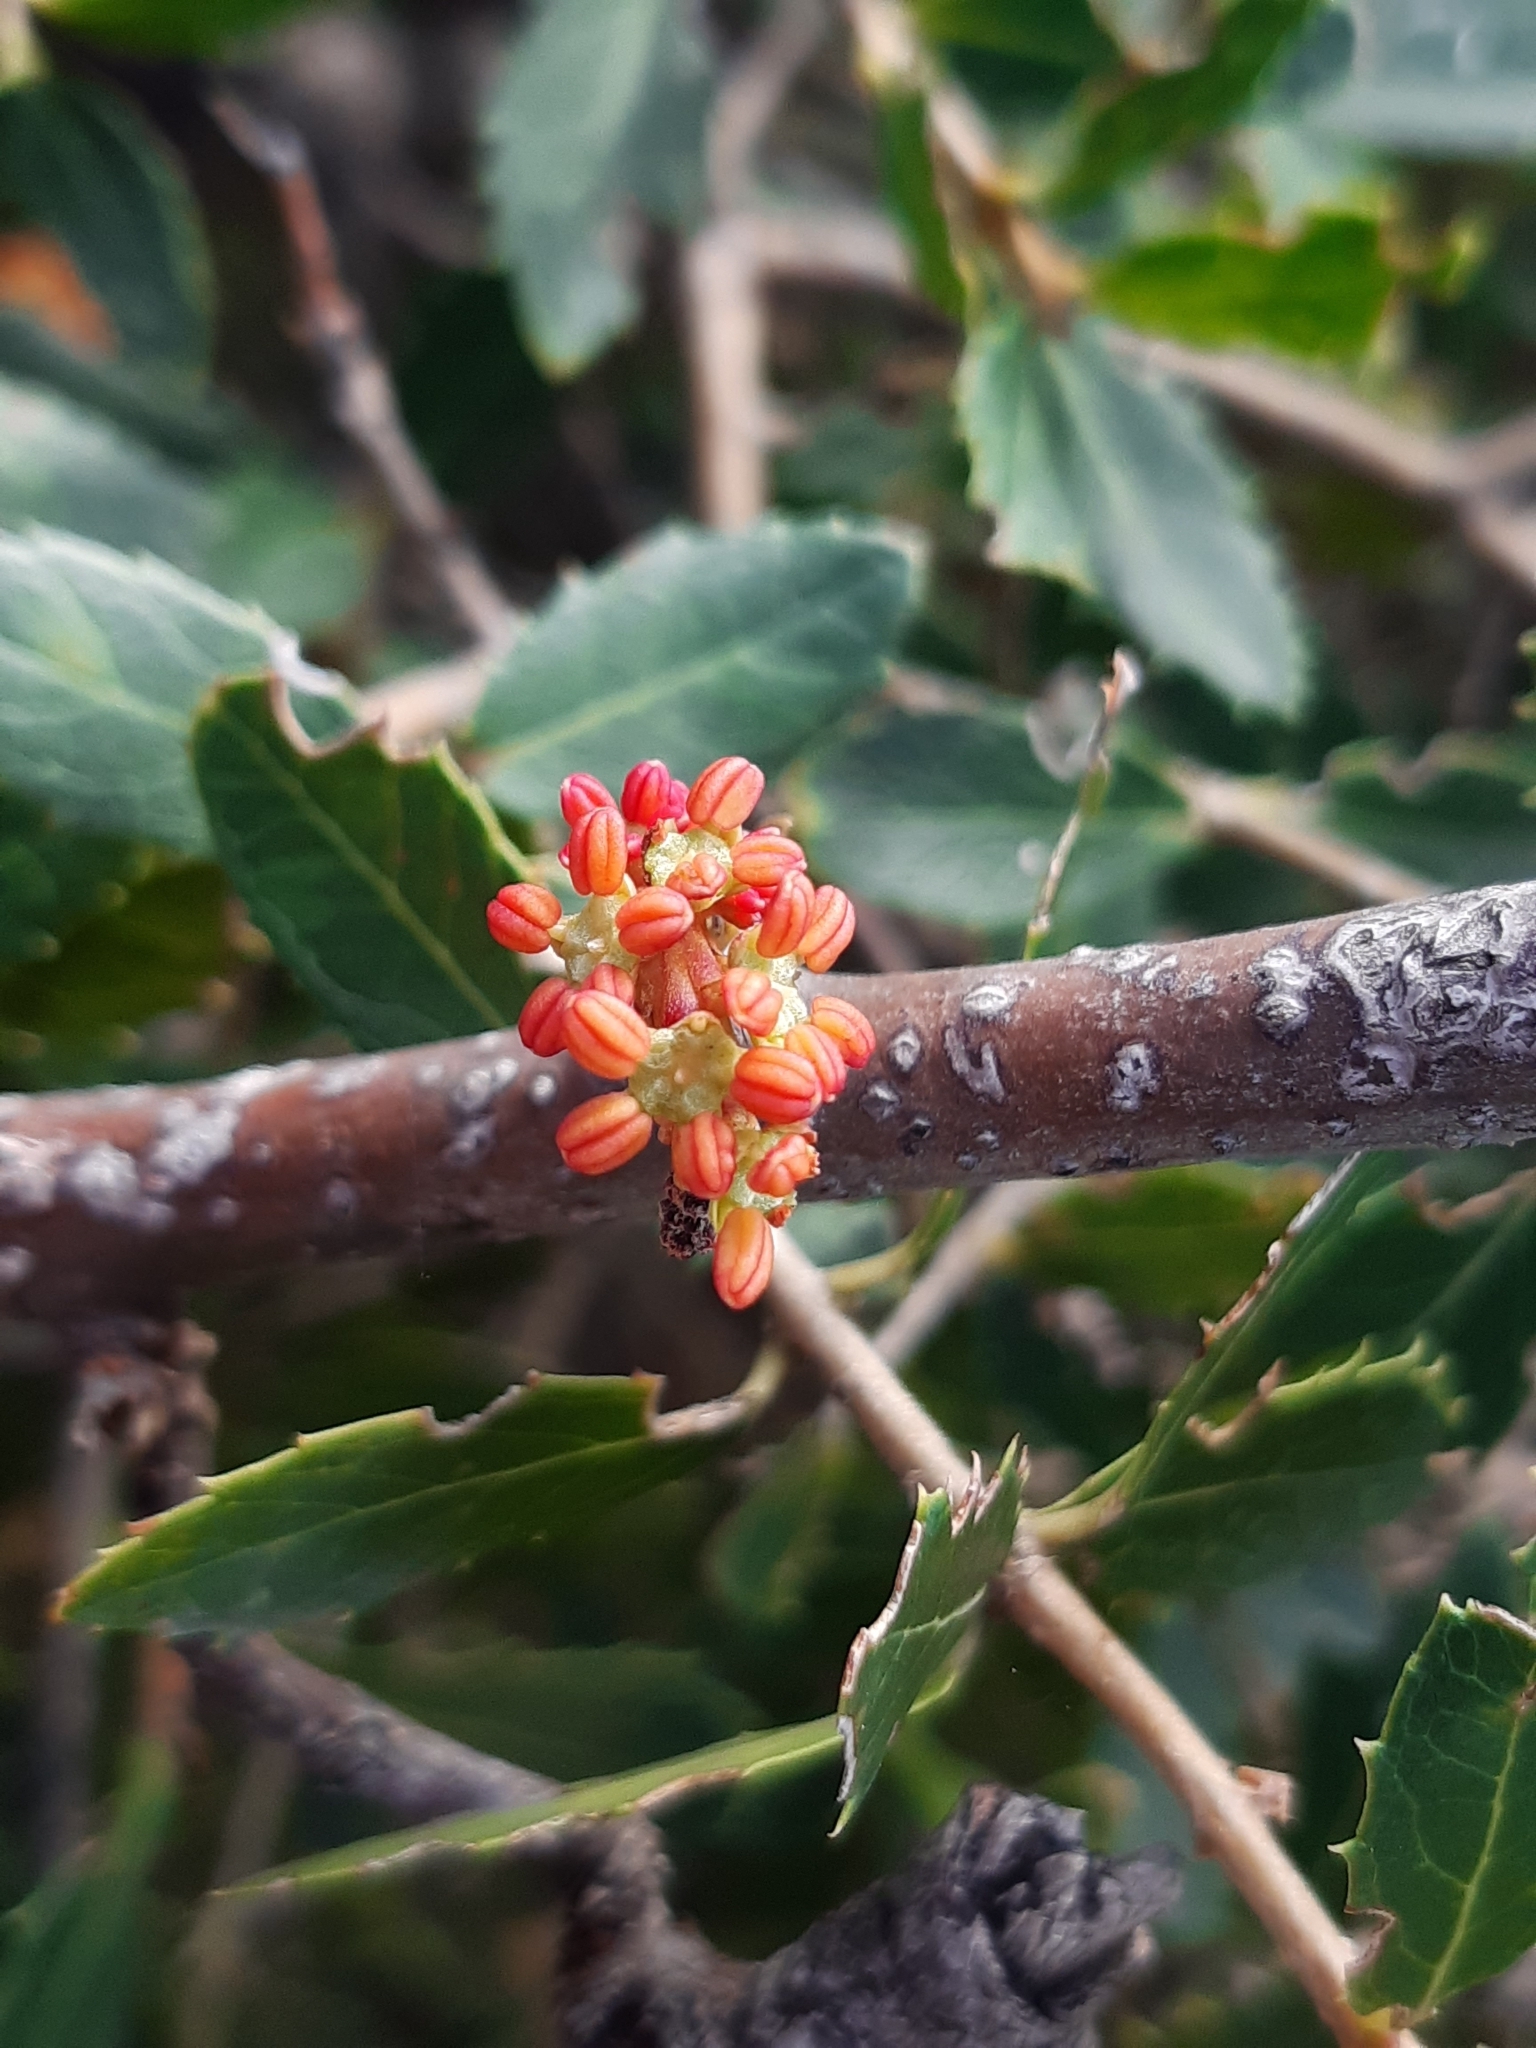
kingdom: Plantae
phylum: Tracheophyta
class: Magnoliopsida
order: Fabales
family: Fabaceae
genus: Ceratonia
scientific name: Ceratonia siliqua
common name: Carob
